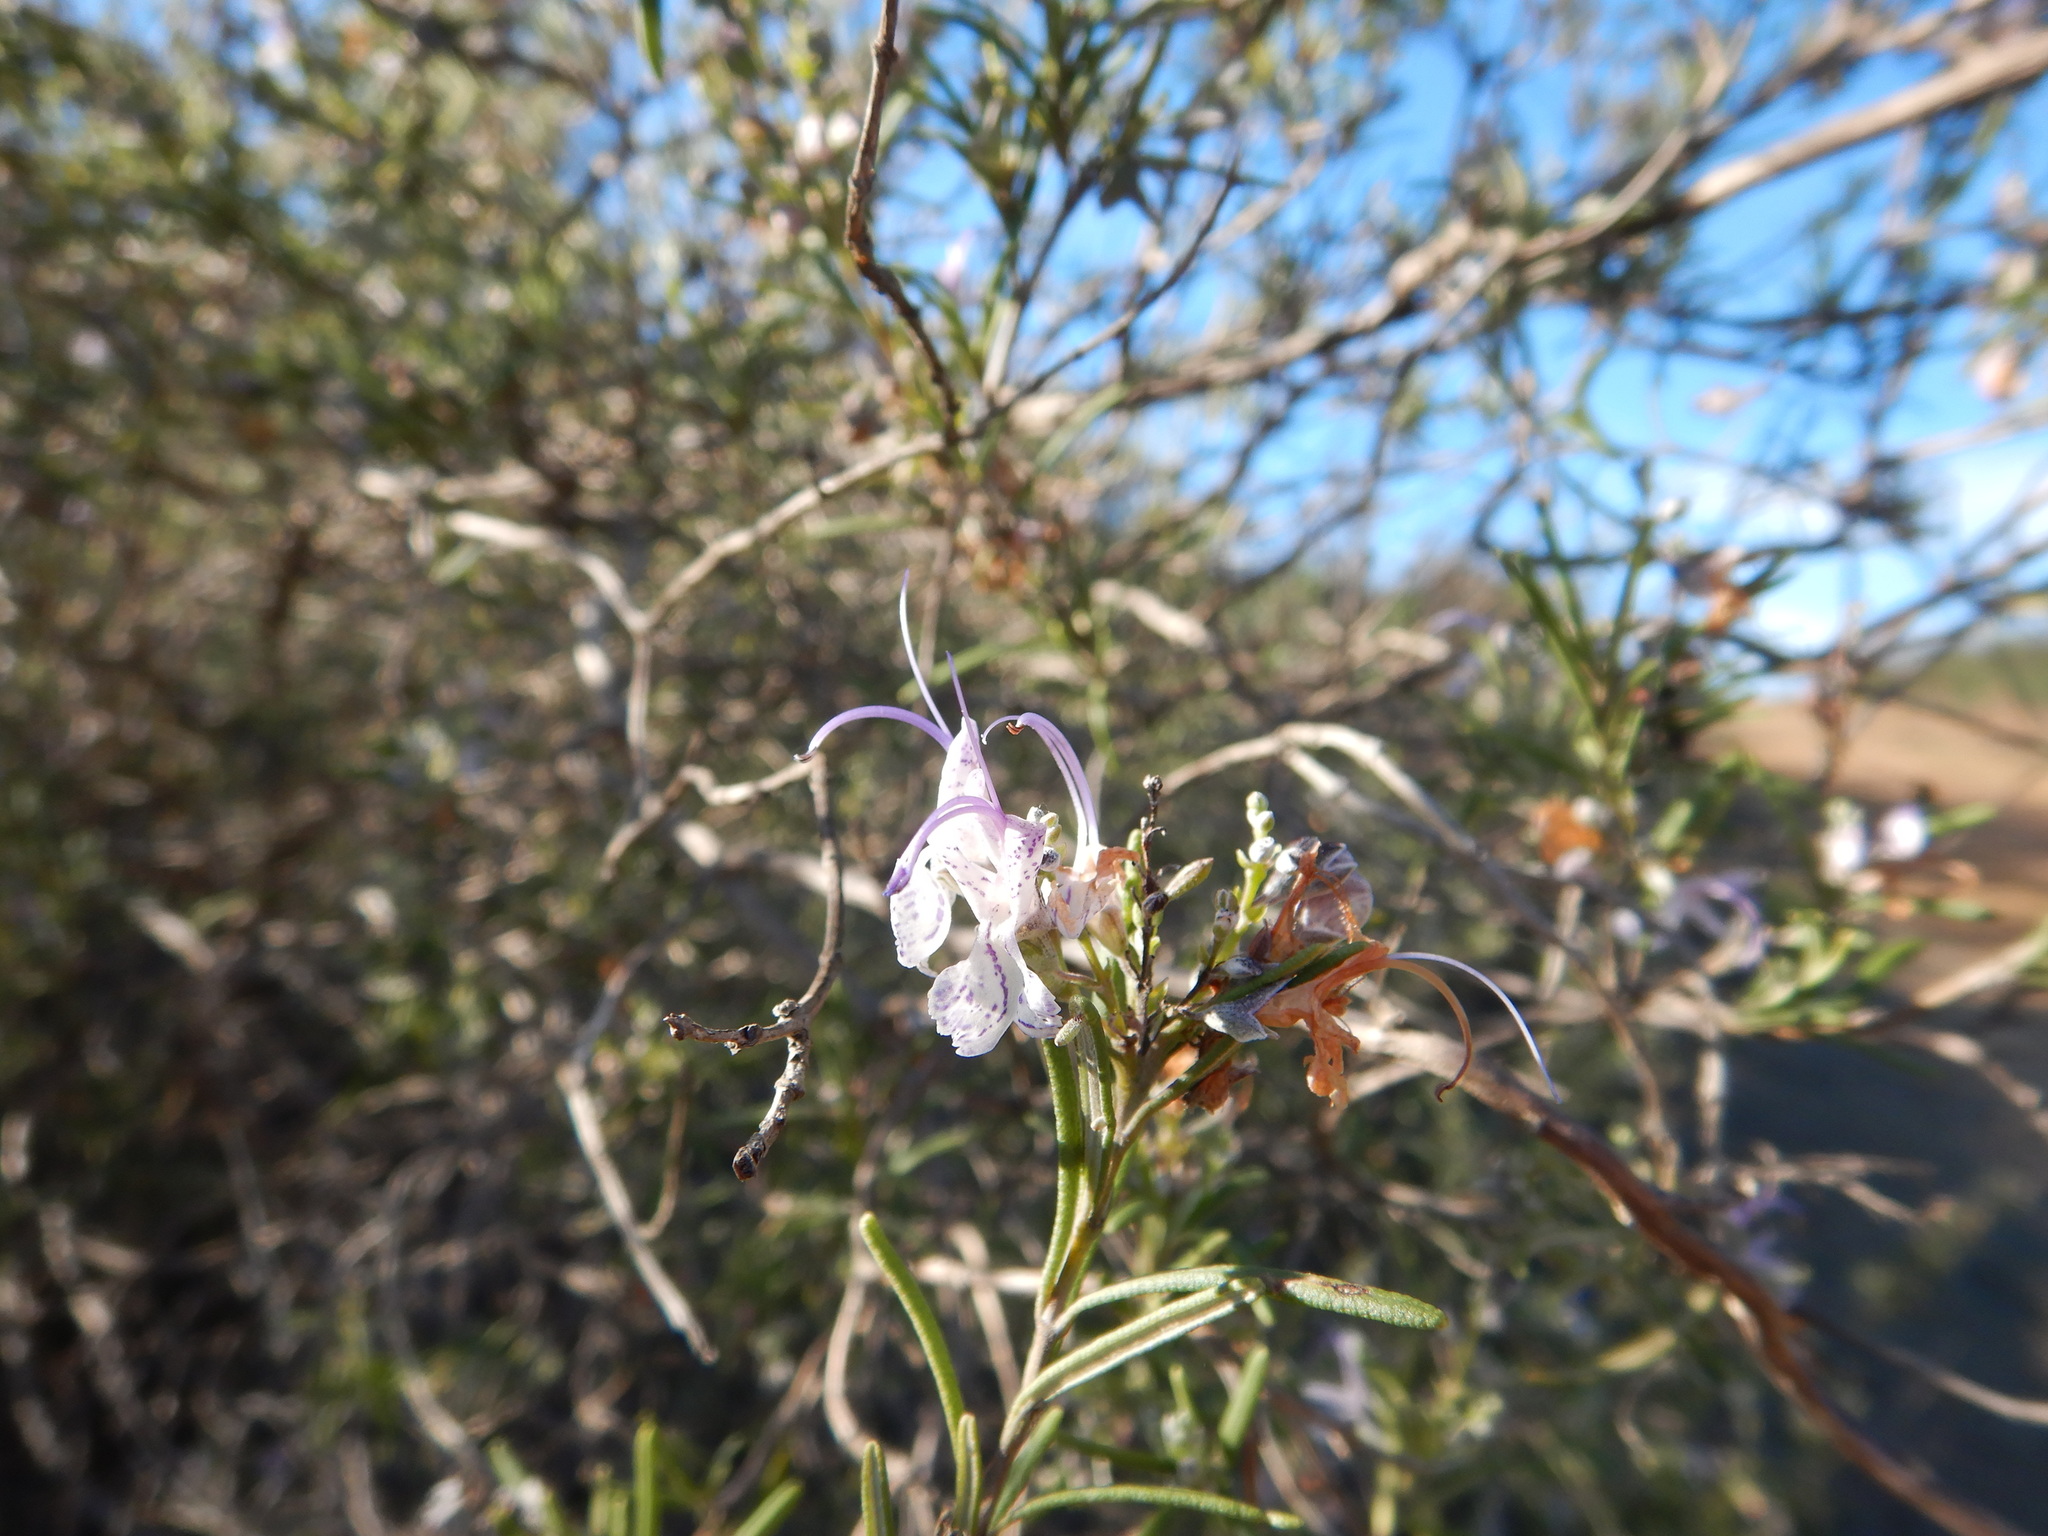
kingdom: Plantae
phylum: Tracheophyta
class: Magnoliopsida
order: Lamiales
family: Lamiaceae
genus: Salvia
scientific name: Salvia rosmarinus
